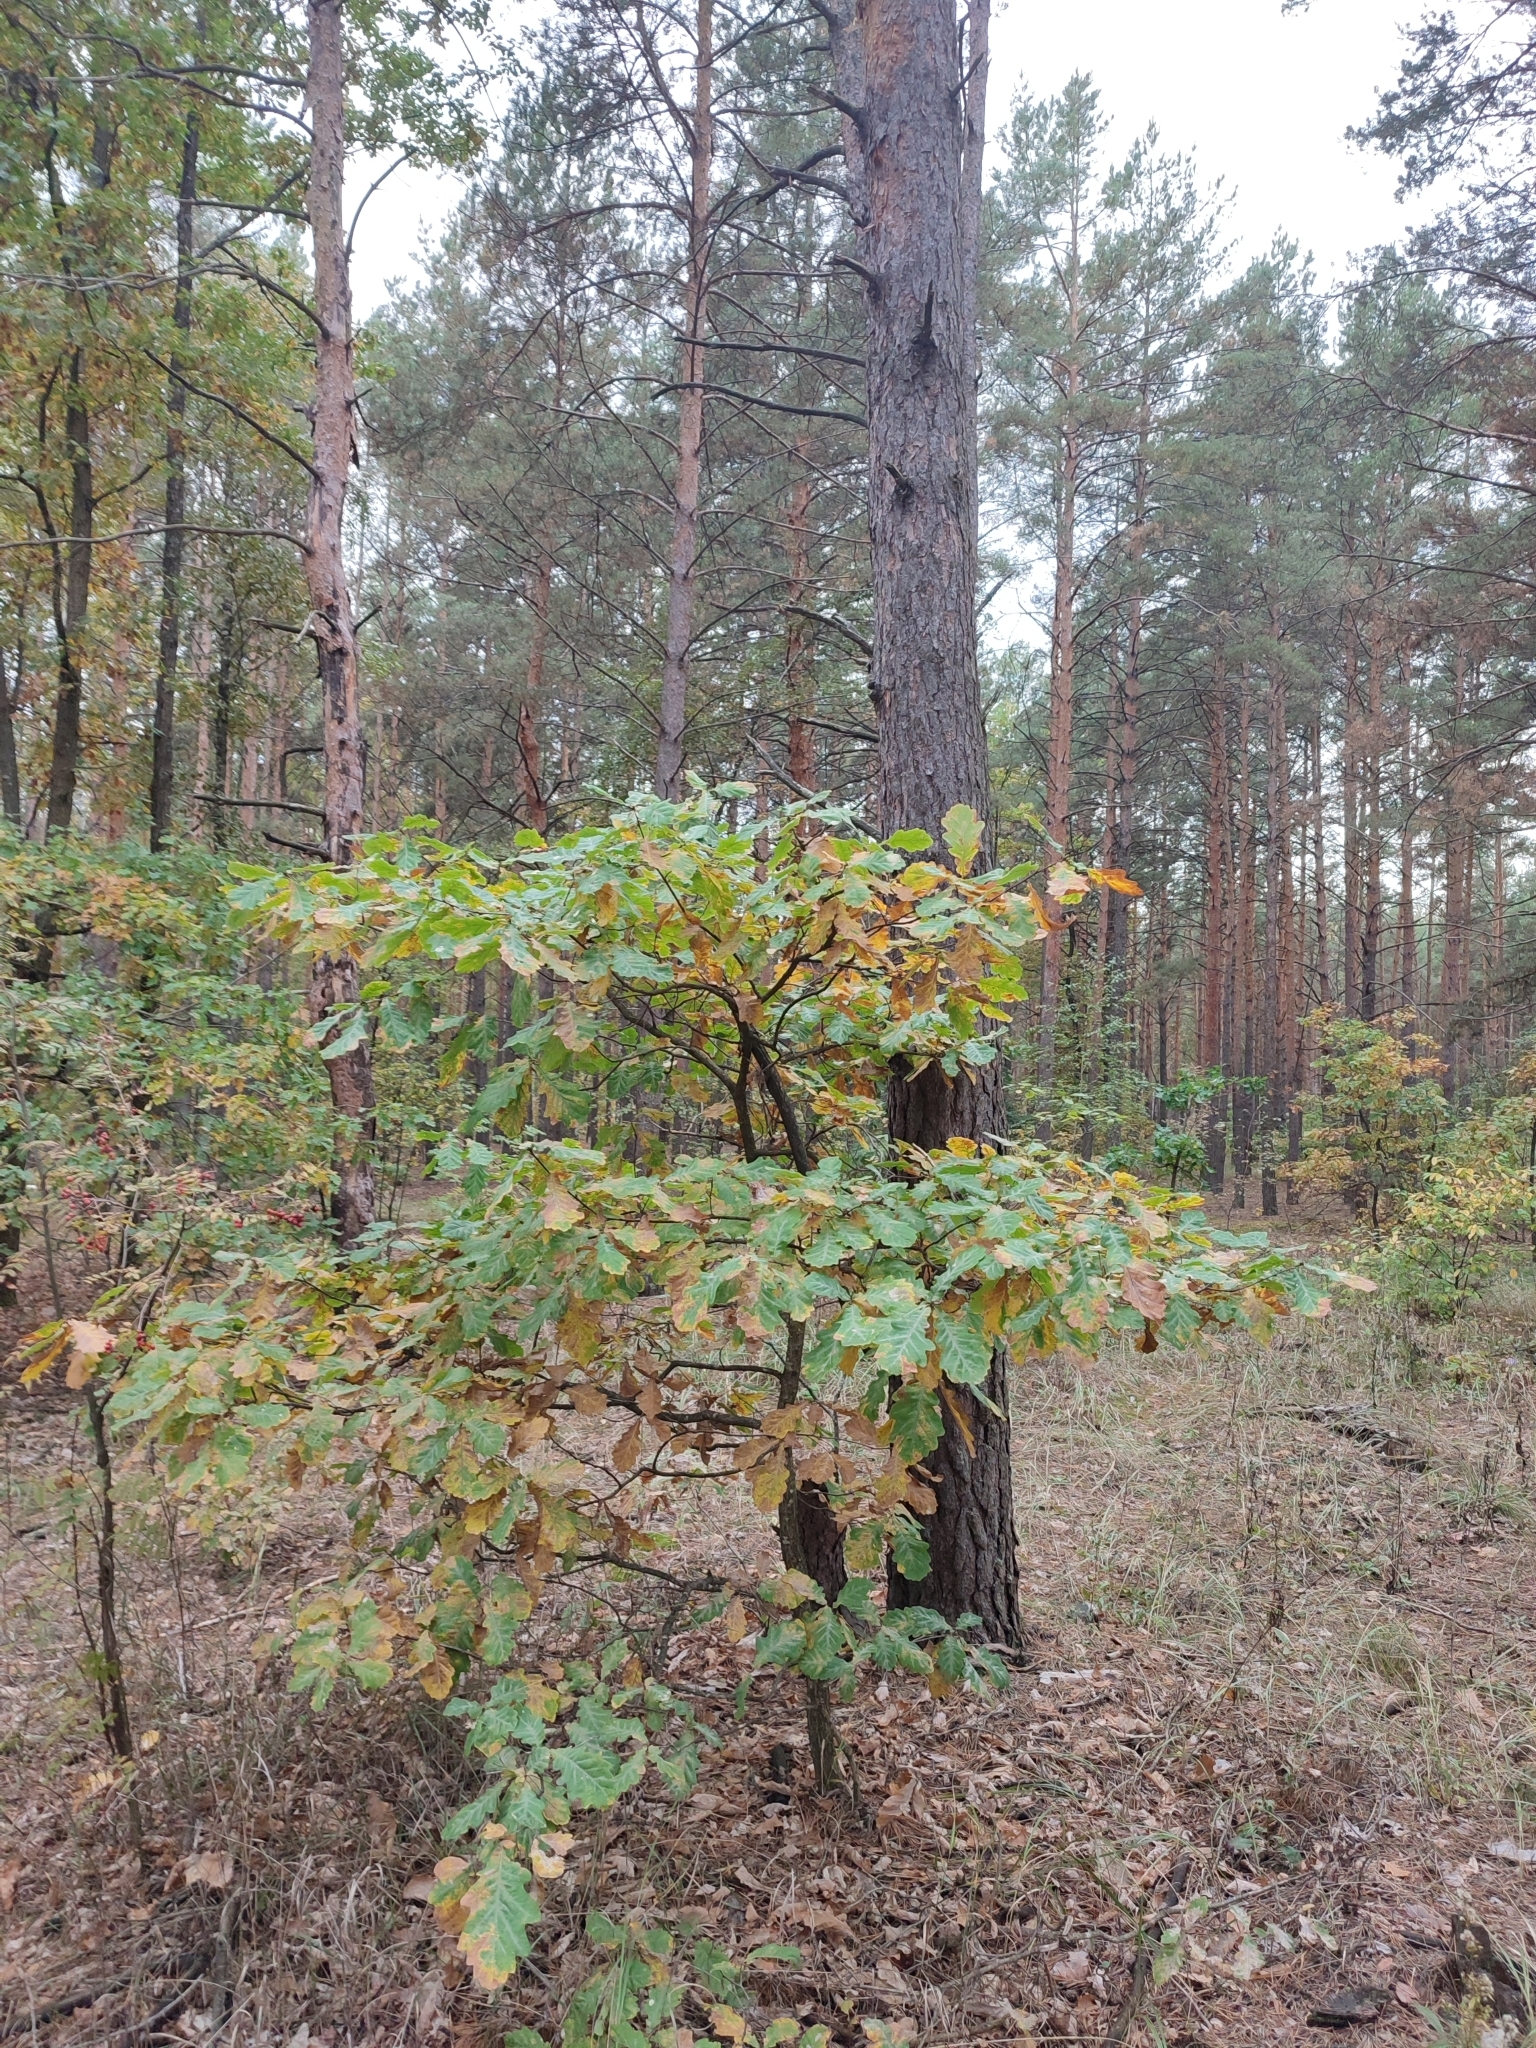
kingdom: Plantae
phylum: Tracheophyta
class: Magnoliopsida
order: Fagales
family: Fagaceae
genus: Quercus
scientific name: Quercus robur
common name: Pedunculate oak
